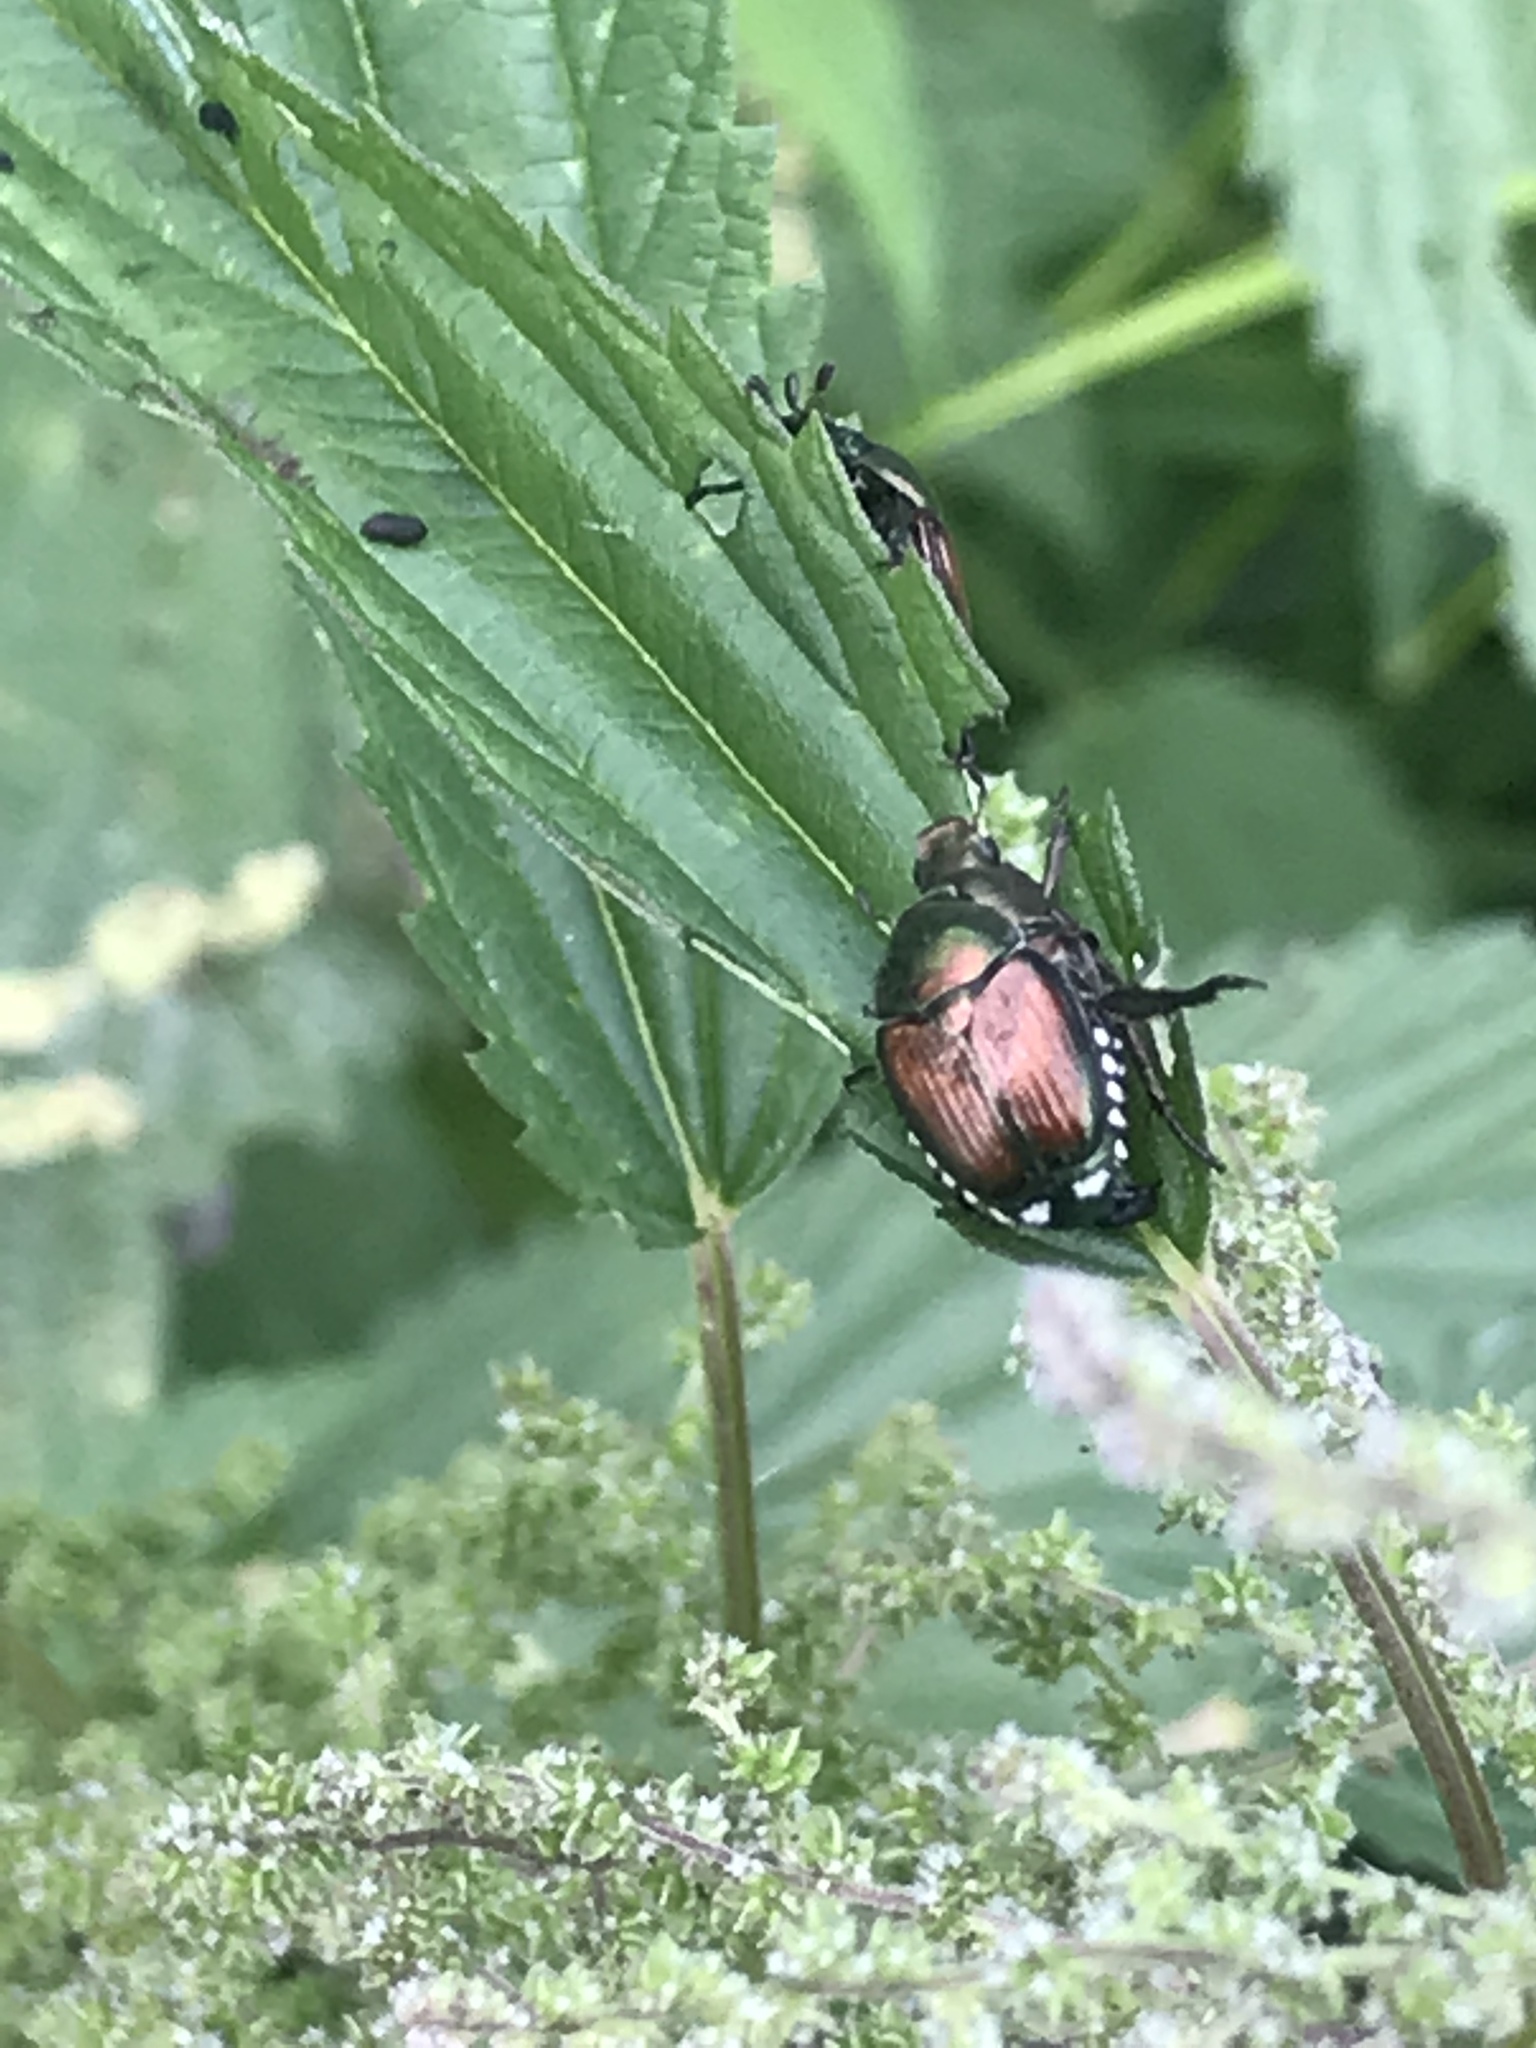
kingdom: Animalia
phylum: Arthropoda
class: Insecta
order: Coleoptera
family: Scarabaeidae
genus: Popillia
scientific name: Popillia japonica
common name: Japanese beetle
